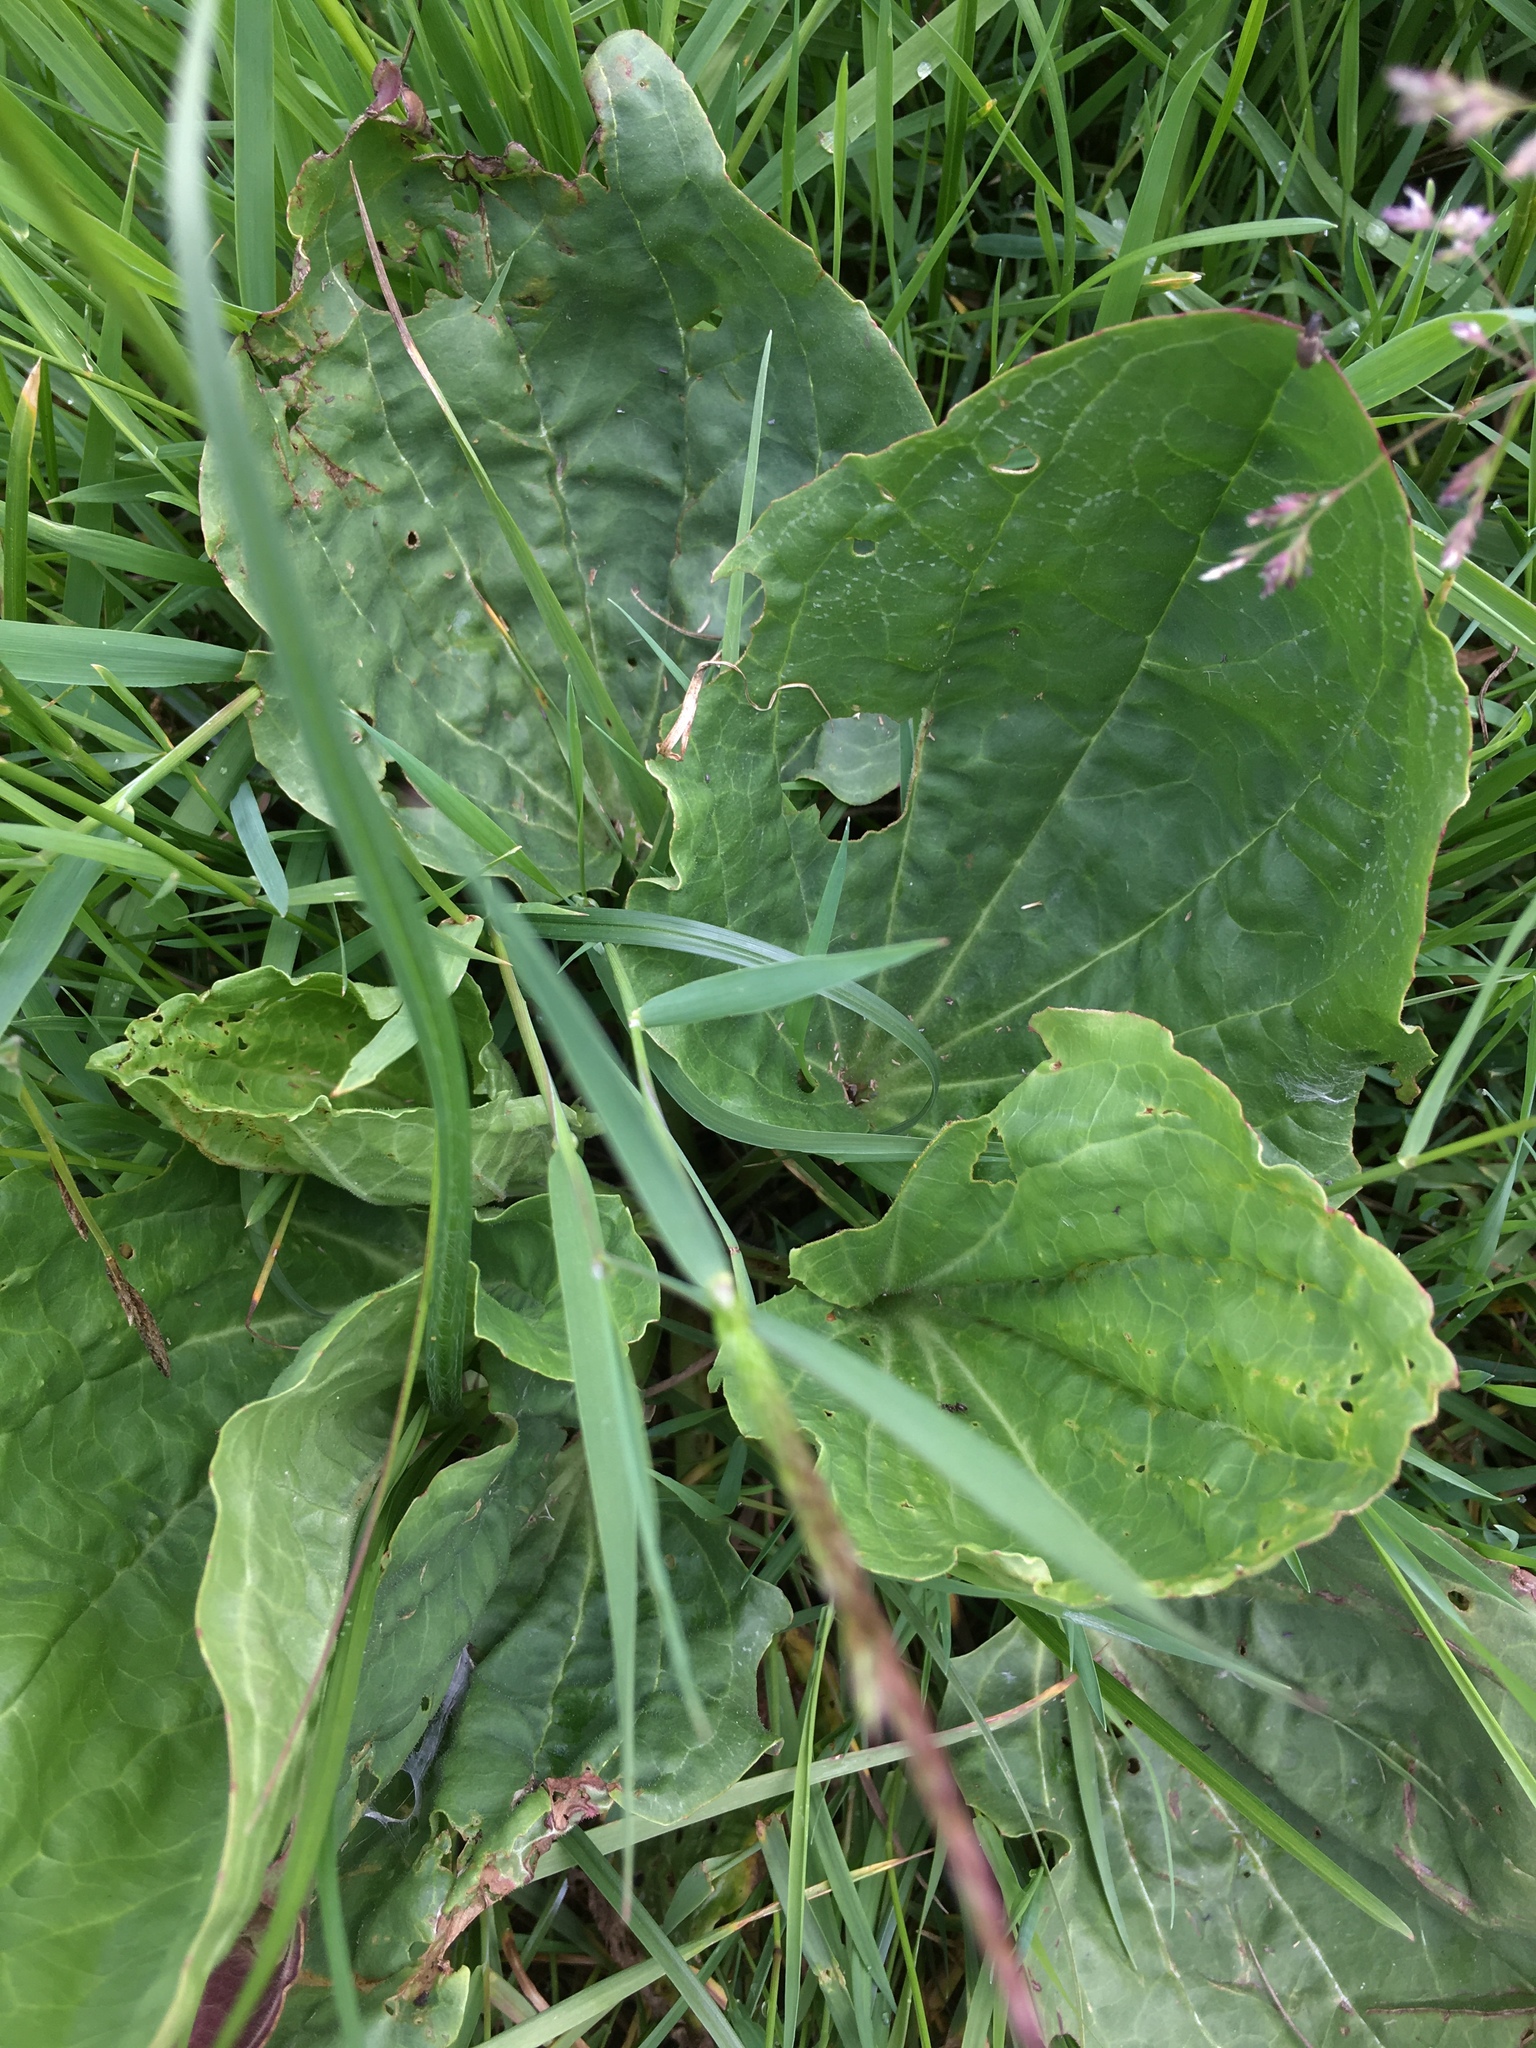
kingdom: Plantae
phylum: Tracheophyta
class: Magnoliopsida
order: Lamiales
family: Plantaginaceae
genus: Plantago
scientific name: Plantago major
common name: Common plantain
